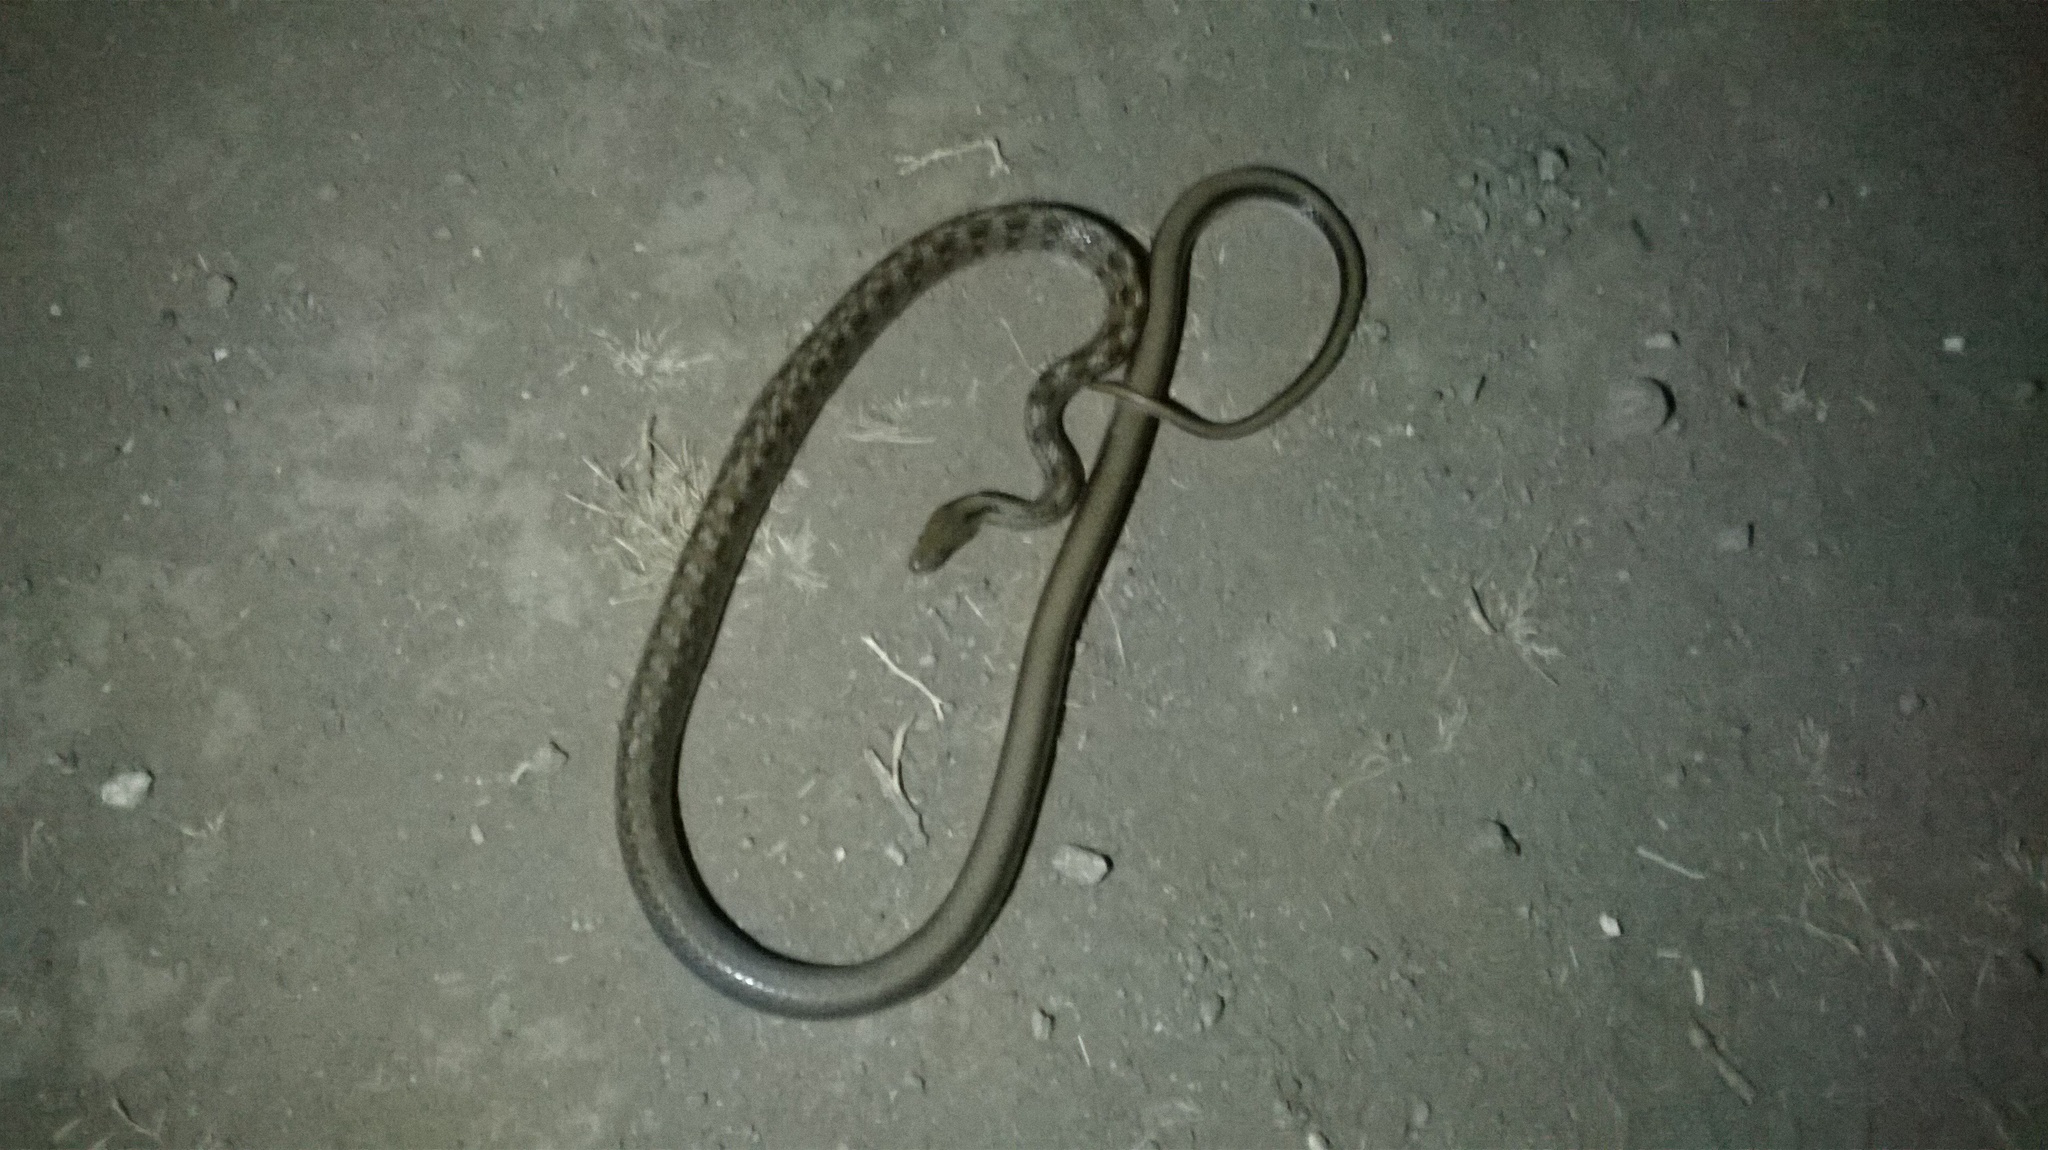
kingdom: Animalia
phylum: Chordata
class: Squamata
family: Colubridae
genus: Coelognathus
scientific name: Coelognathus helena
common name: Trinket snake
